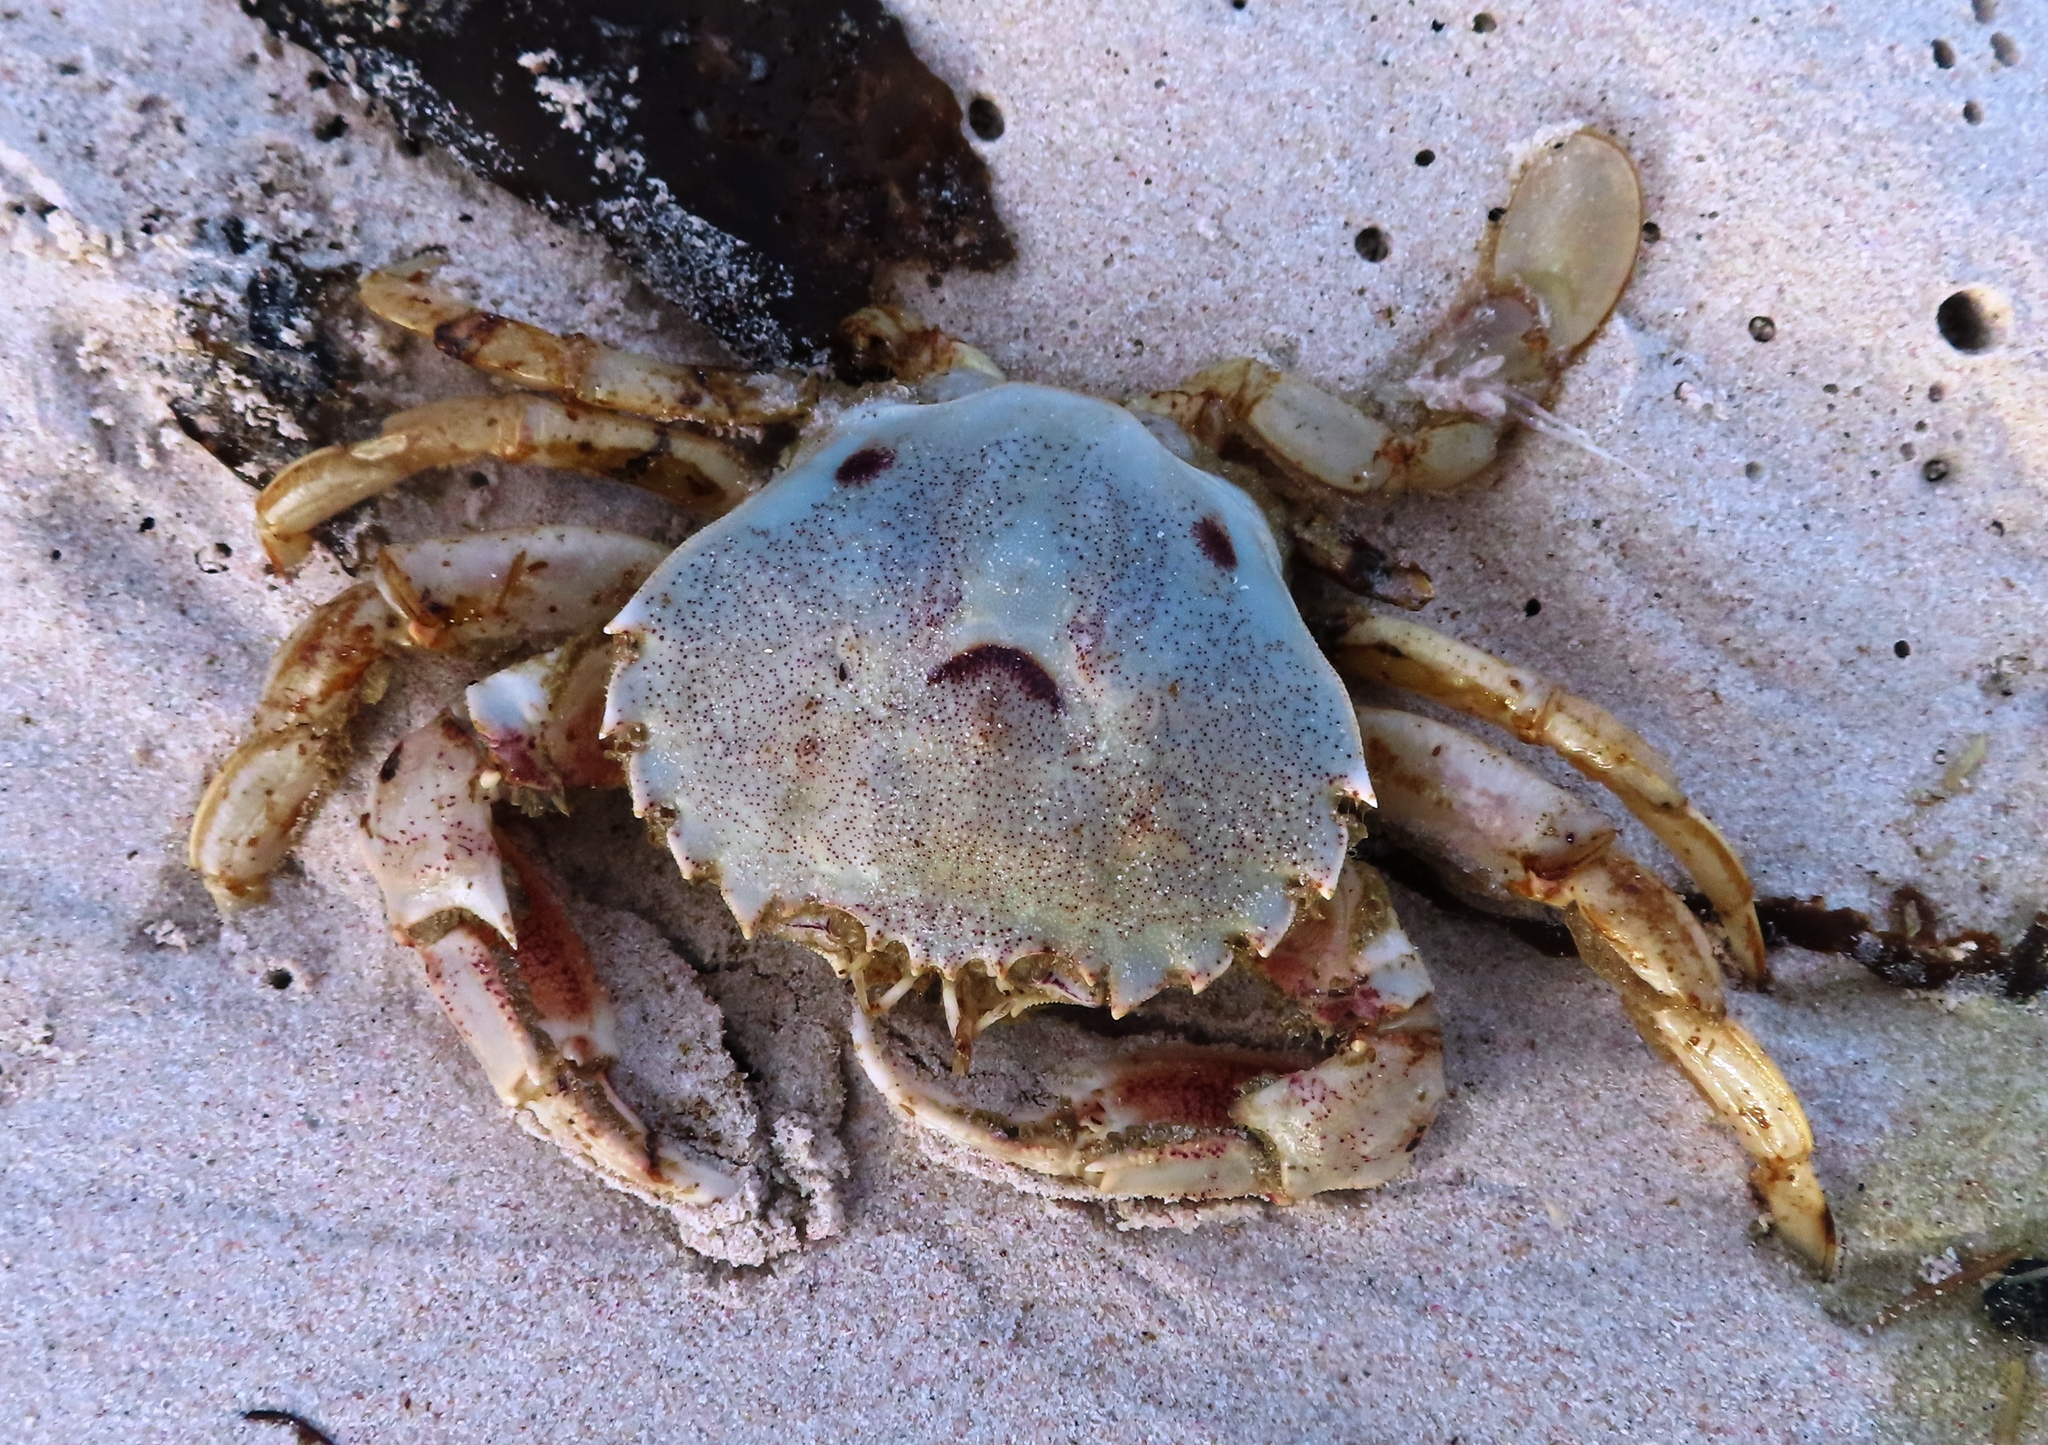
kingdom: Animalia
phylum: Arthropoda
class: Malacostraca
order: Decapoda
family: Ovalipidae
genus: Ovalipes
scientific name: Ovalipes trimaculatus
